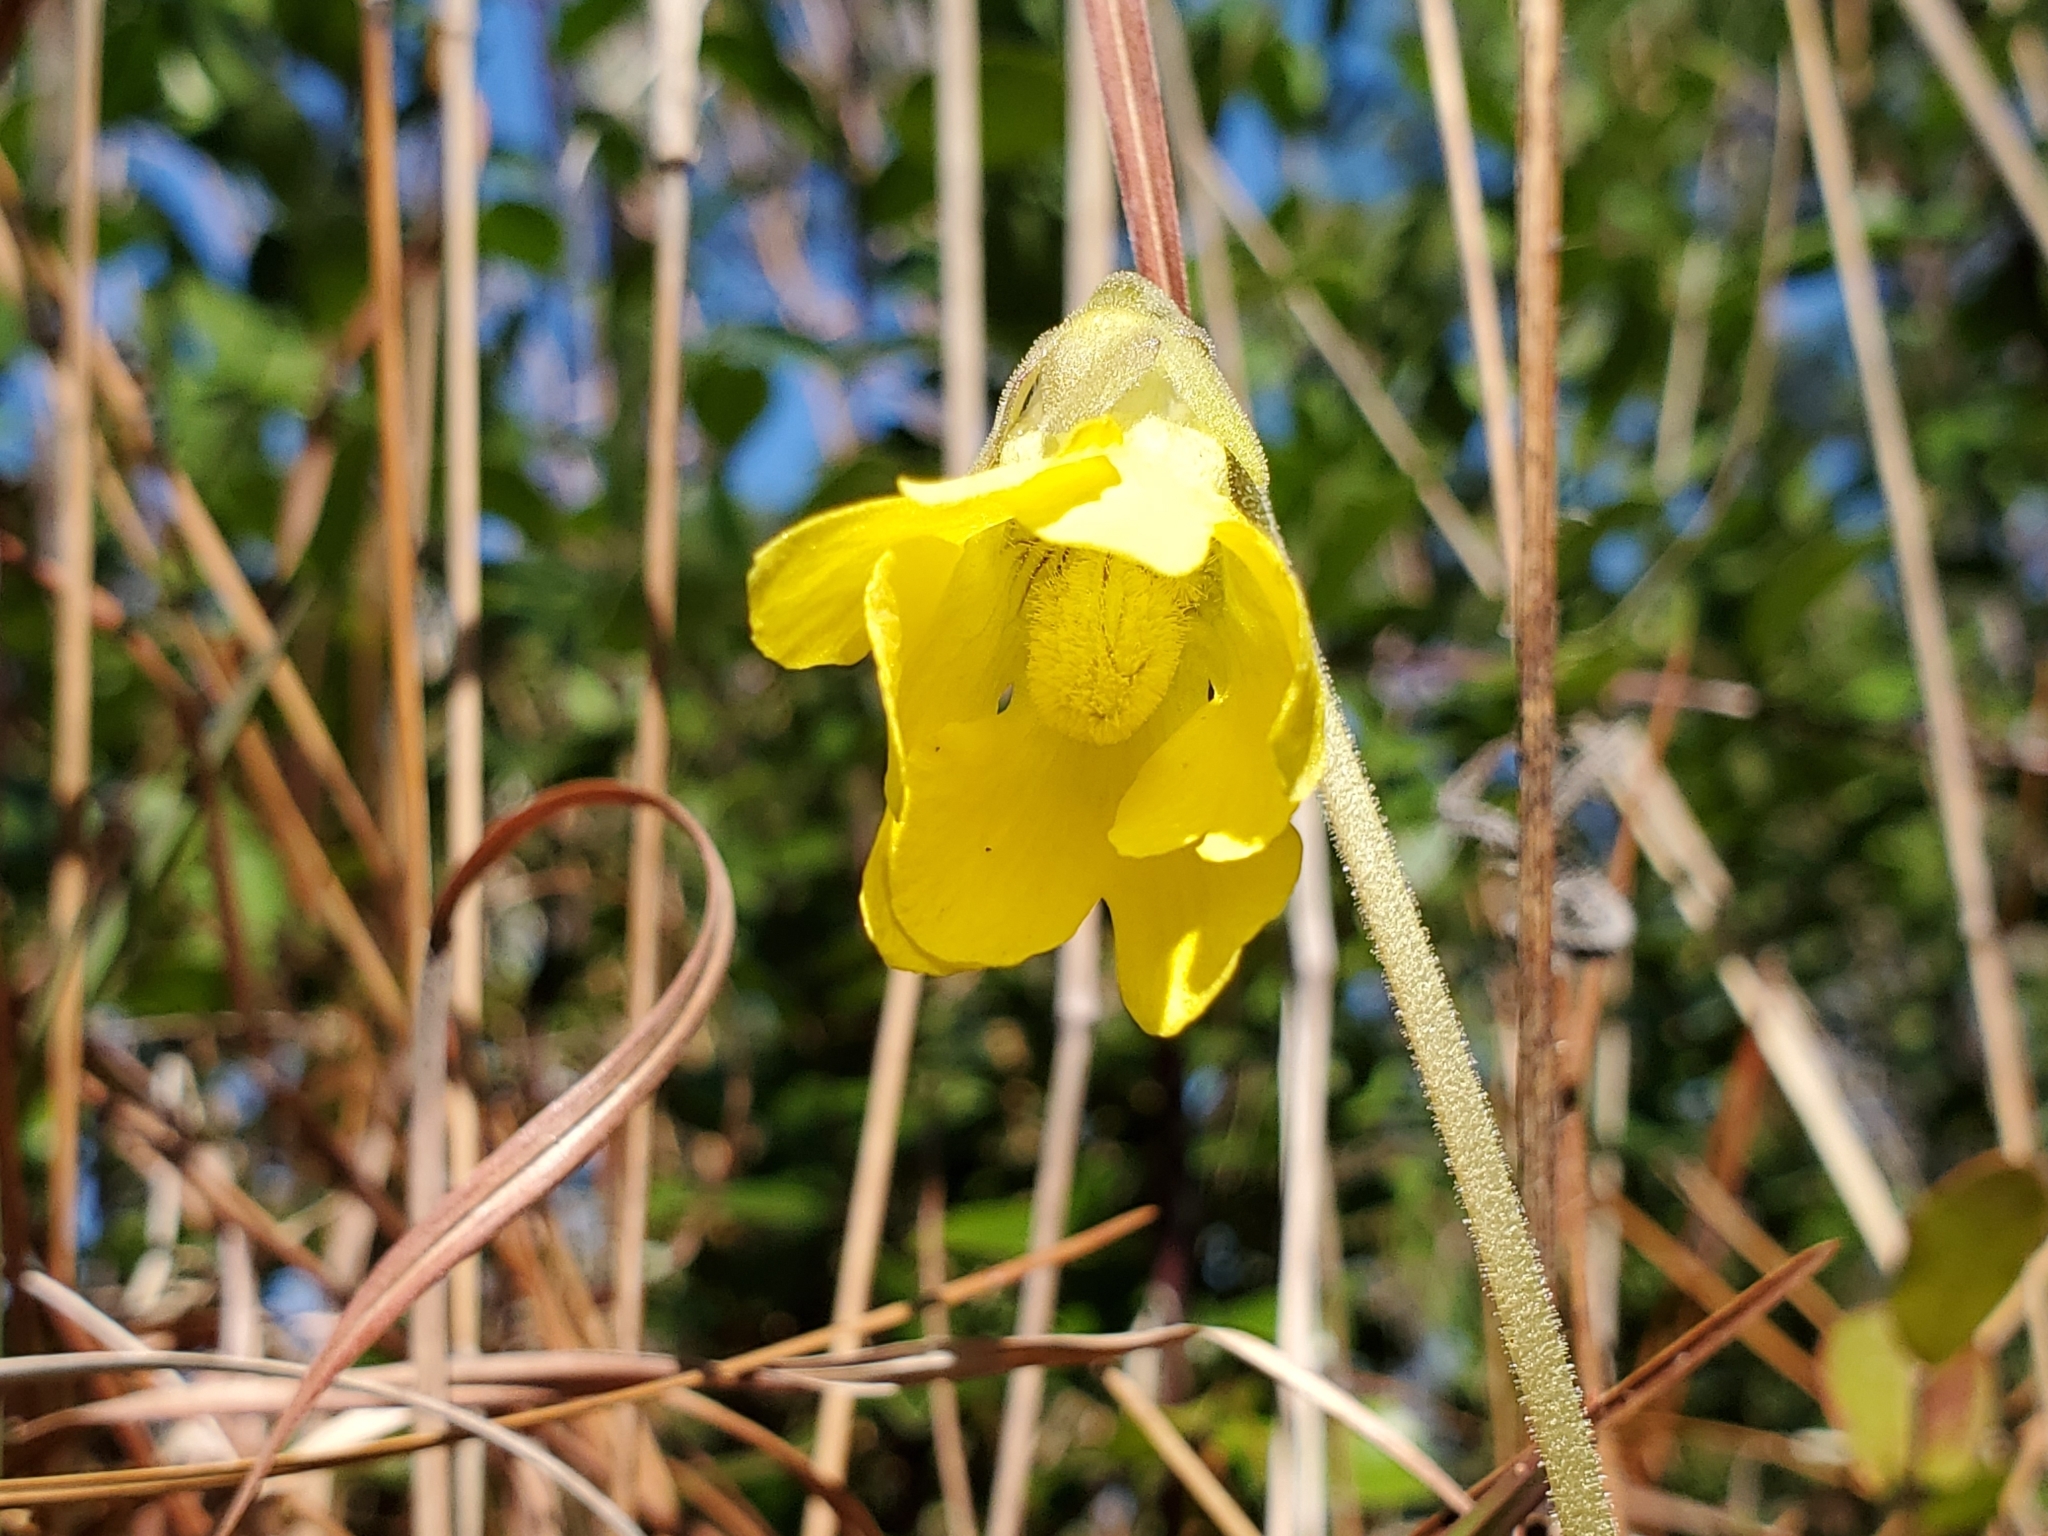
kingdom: Plantae
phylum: Tracheophyta
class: Magnoliopsida
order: Lamiales
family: Lentibulariaceae
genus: Pinguicula
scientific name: Pinguicula lutea
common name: Yellow butterwort
